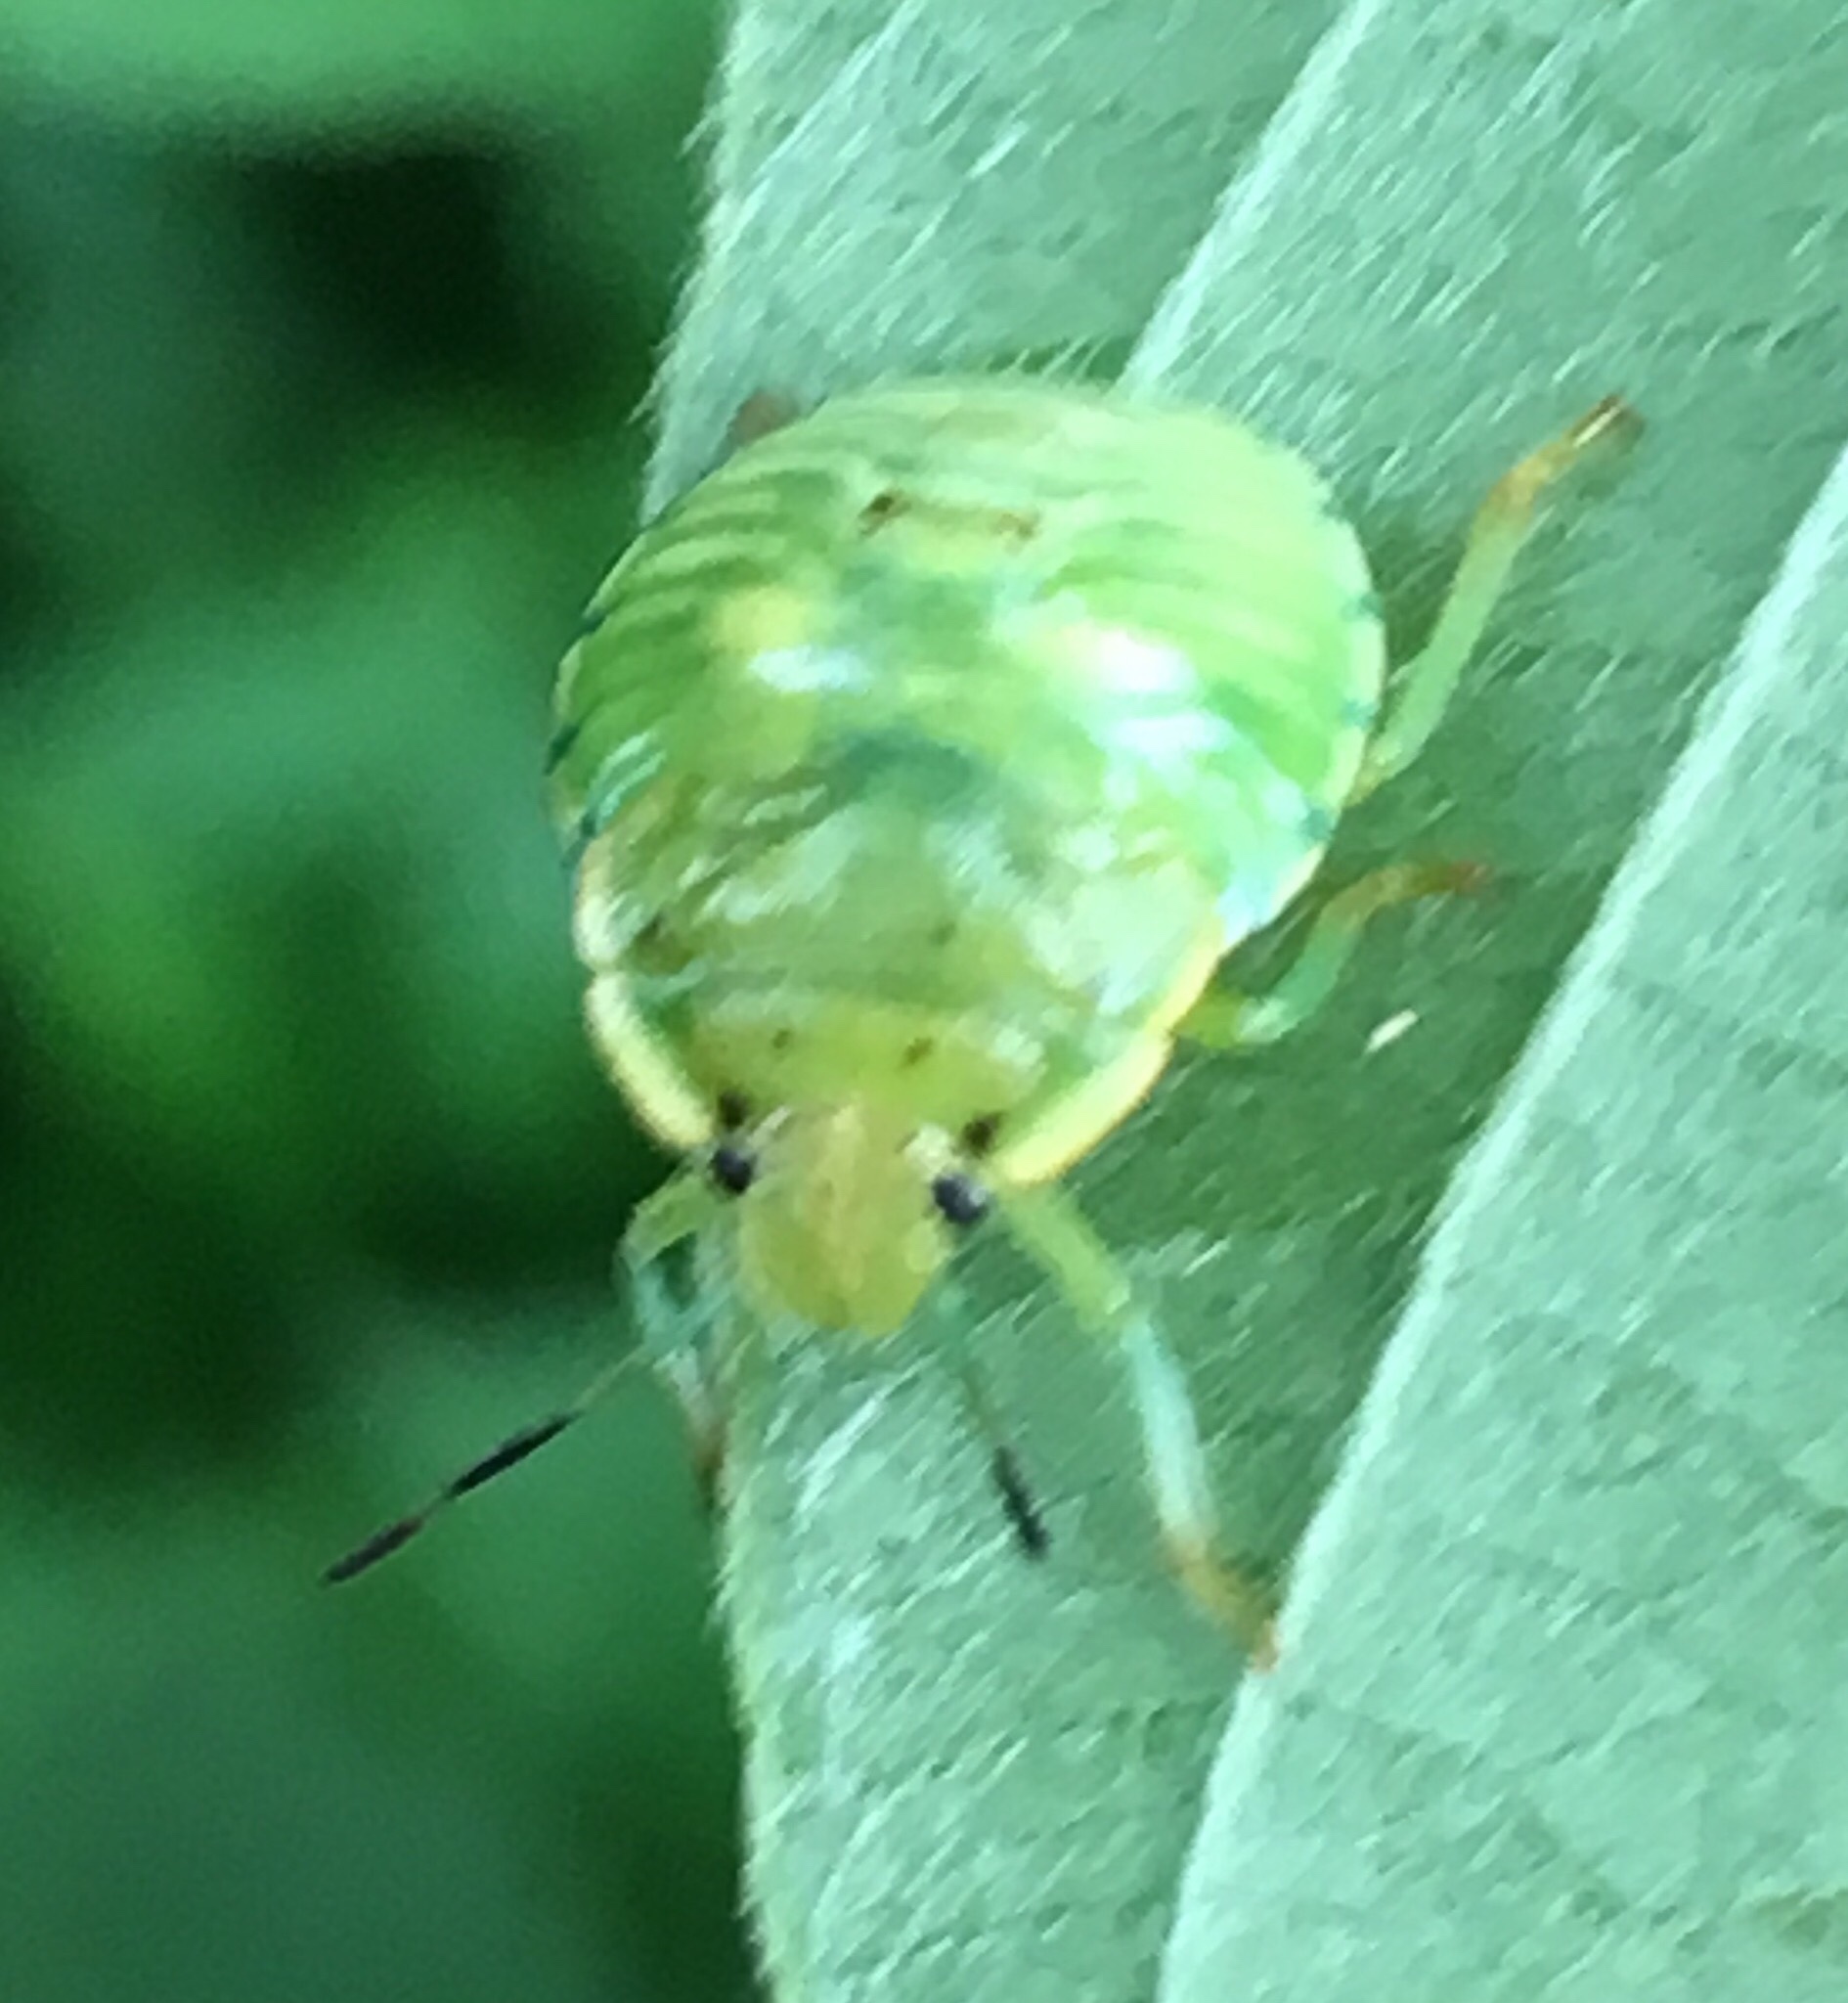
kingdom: Animalia
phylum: Arthropoda
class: Insecta
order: Hemiptera
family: Pentatomidae
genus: Chinavia
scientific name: Chinavia hilaris
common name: Green stink bug
